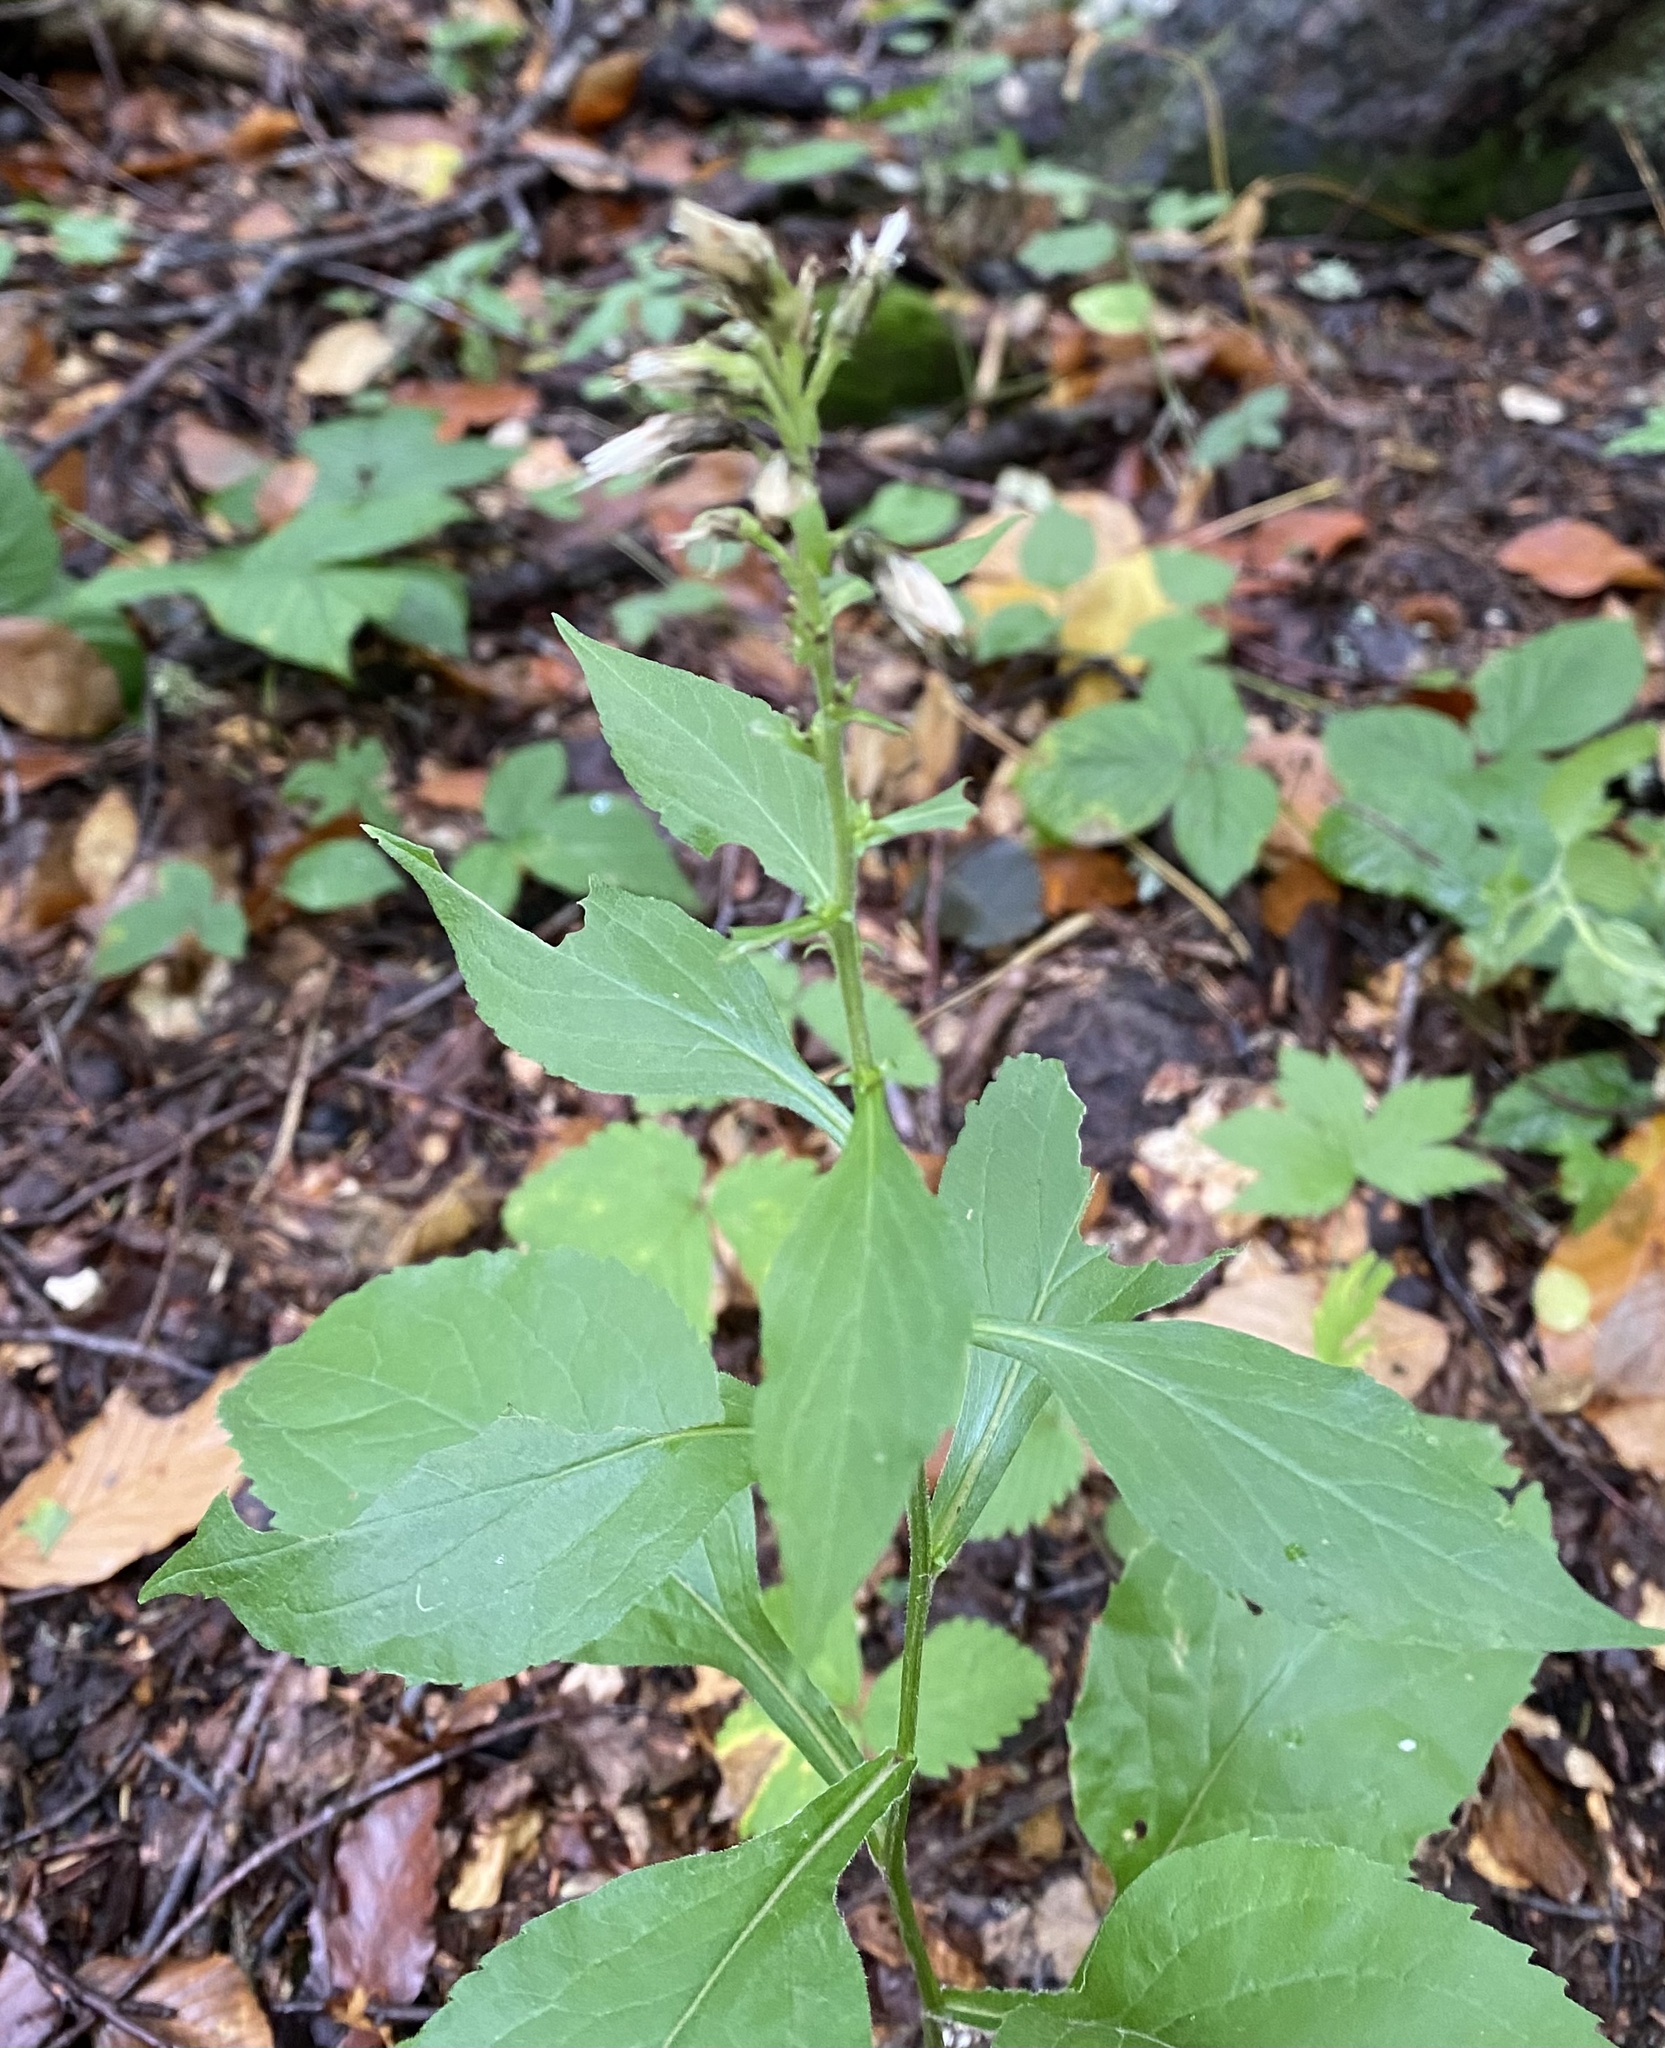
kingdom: Plantae
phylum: Tracheophyta
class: Magnoliopsida
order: Asterales
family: Asteraceae
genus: Solidago
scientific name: Solidago virgaurea
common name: Goldenrod
